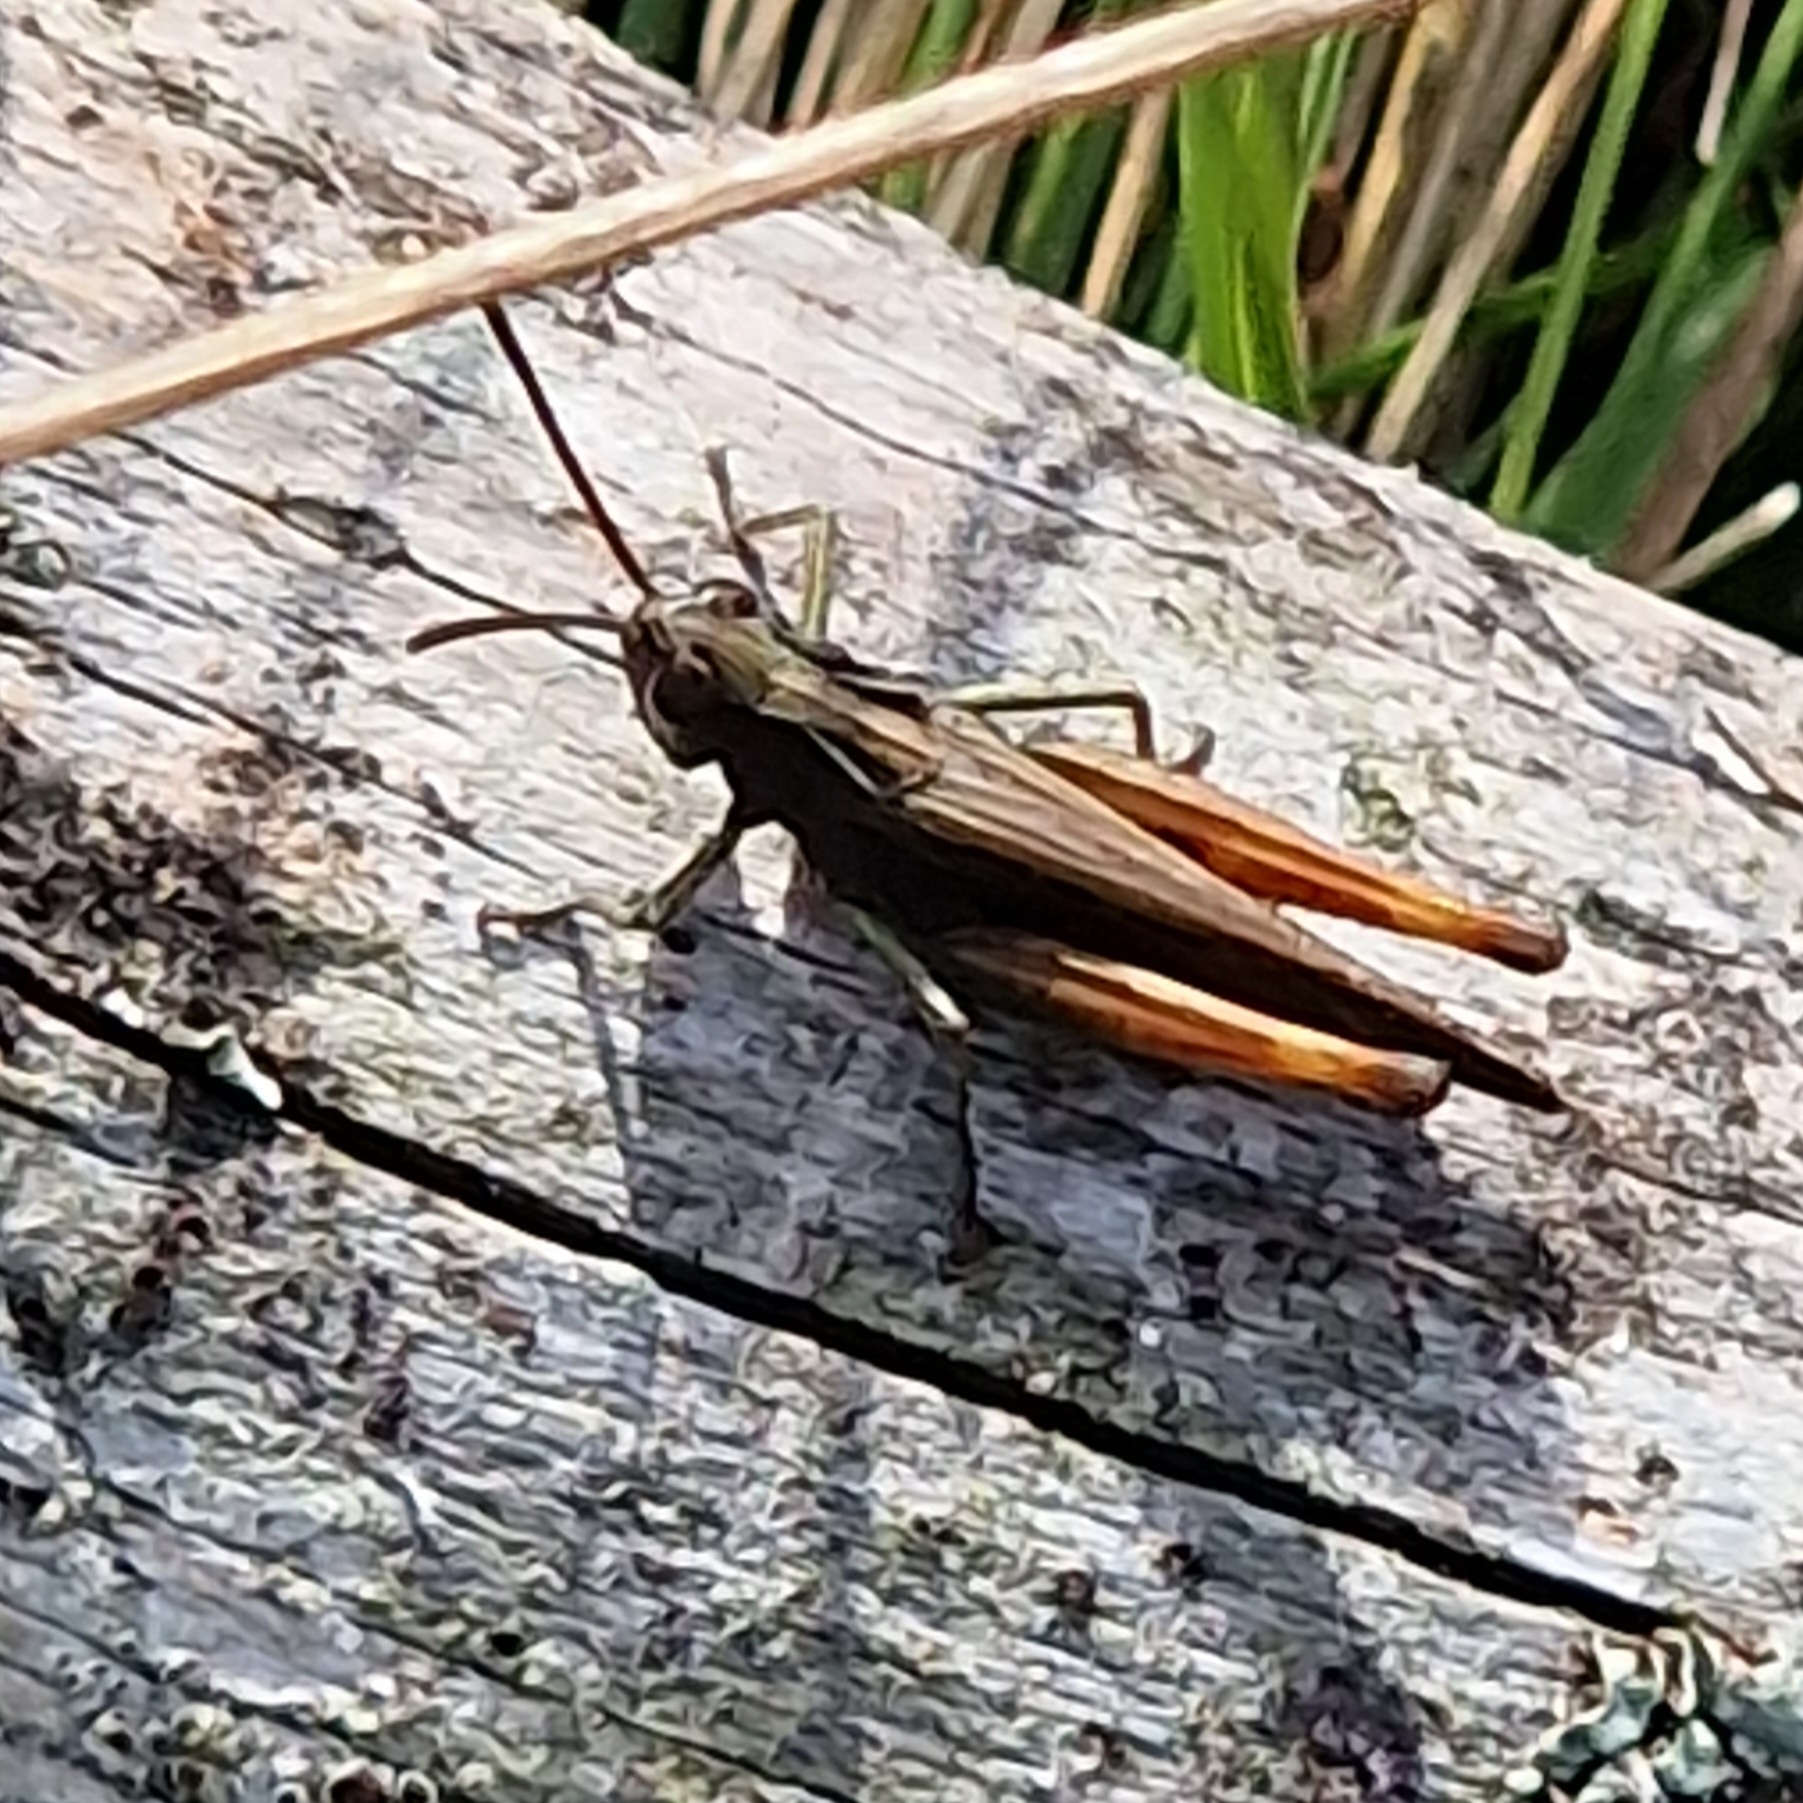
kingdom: Animalia
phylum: Arthropoda
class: Insecta
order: Orthoptera
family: Acrididae
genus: Omocestus
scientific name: Omocestus rufipes
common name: Woodland grasshopper
